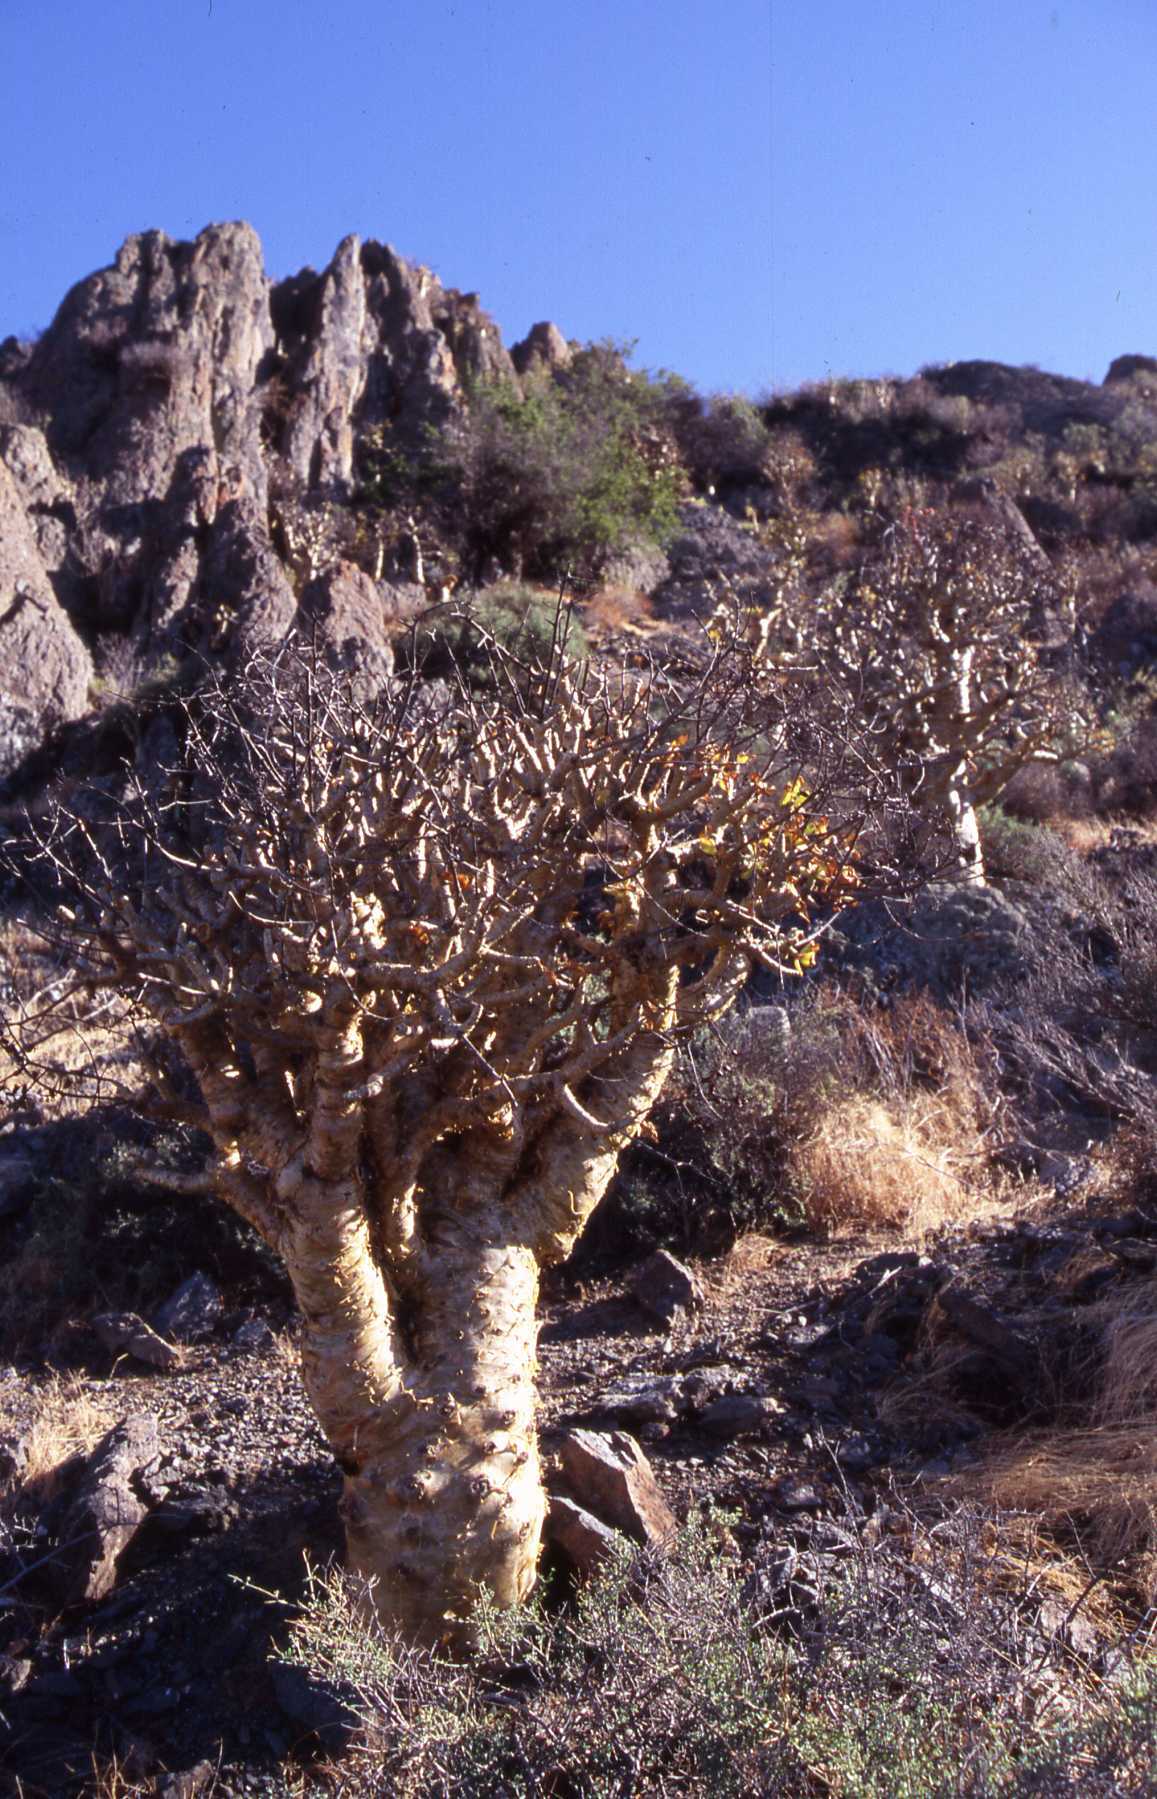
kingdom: Plantae
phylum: Tracheophyta
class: Magnoliopsida
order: Saxifragales
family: Crassulaceae
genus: Tylecodon
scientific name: Tylecodon paniculatus
